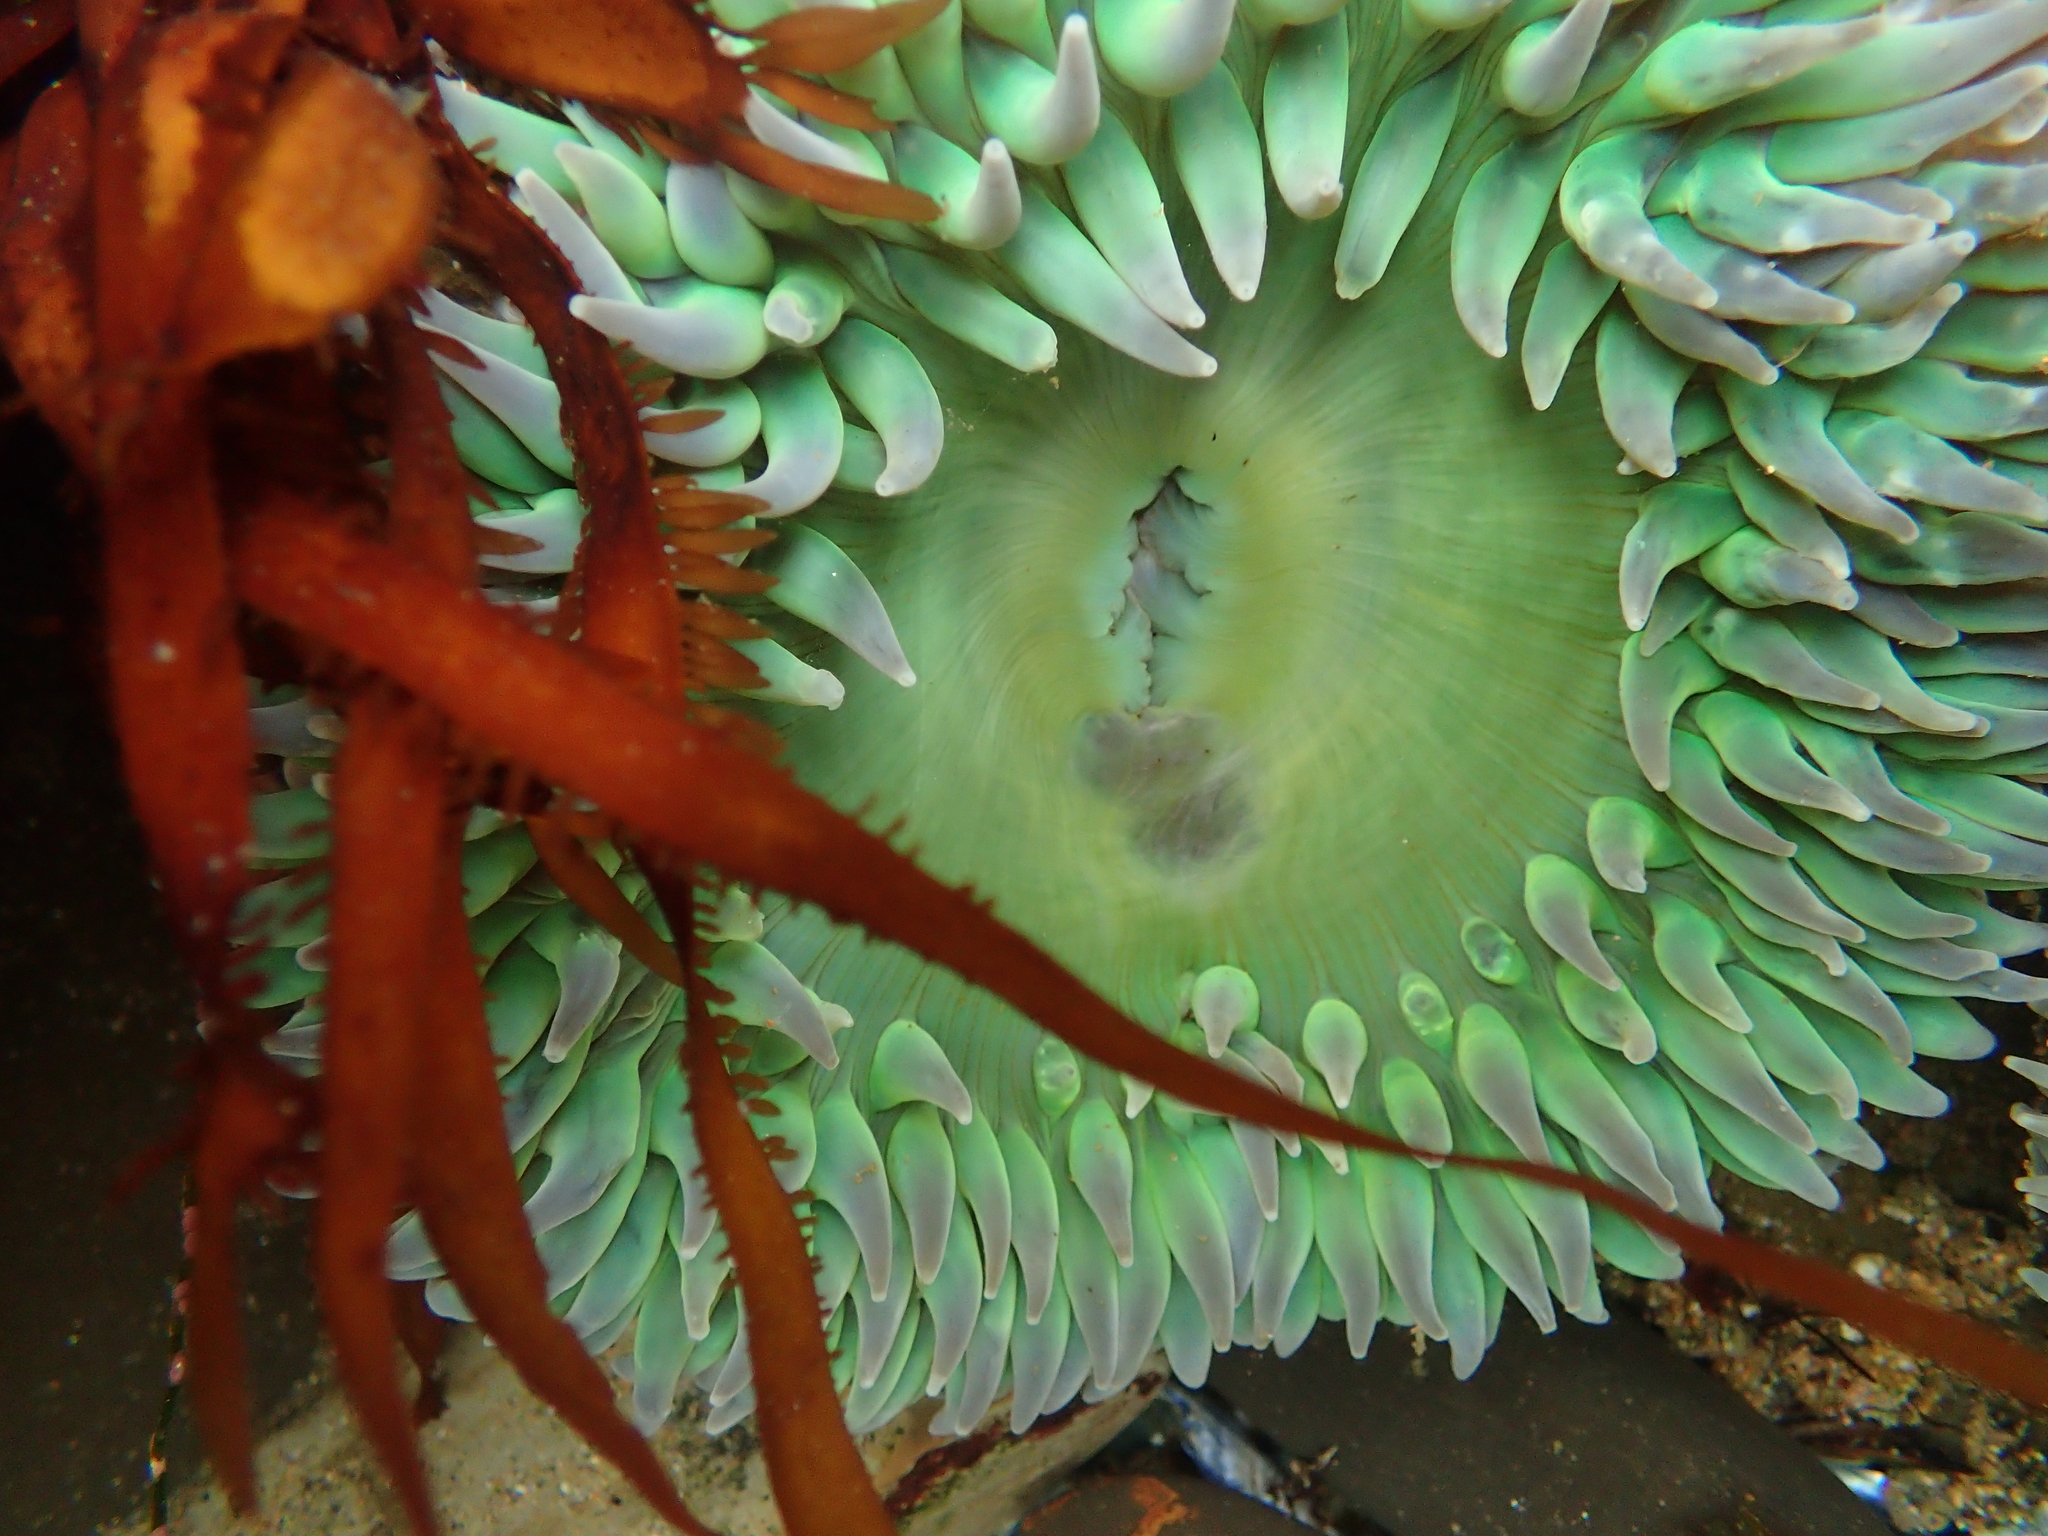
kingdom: Animalia
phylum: Cnidaria
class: Anthozoa
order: Actiniaria
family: Actiniidae
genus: Anthopleura
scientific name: Anthopleura xanthogrammica
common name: Giant green anemone
